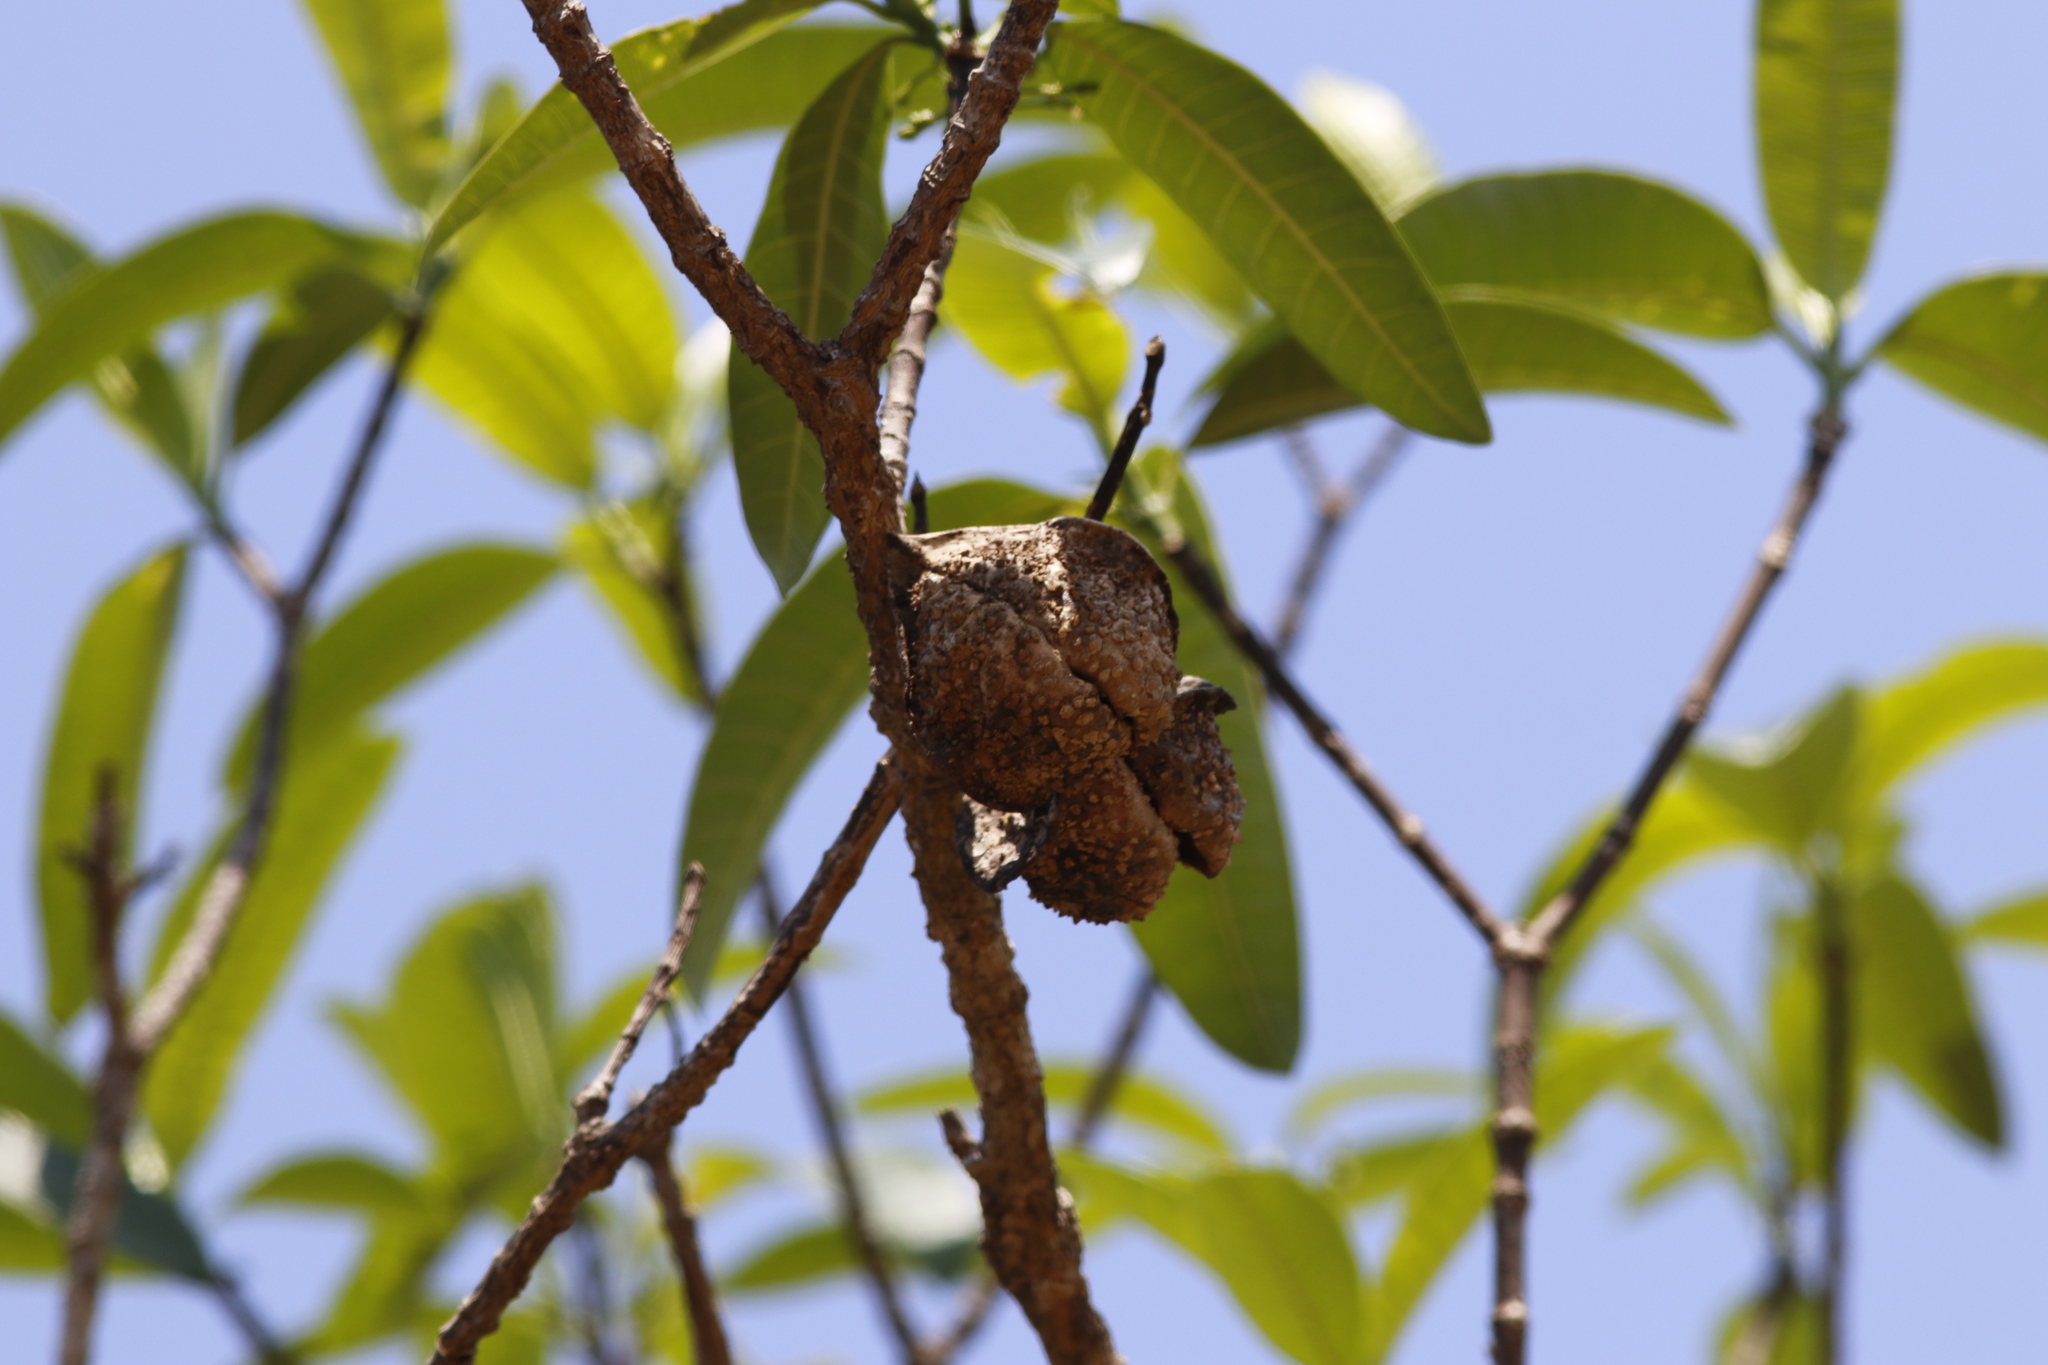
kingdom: Plantae
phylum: Tracheophyta
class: Magnoliopsida
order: Gentianales
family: Apocynaceae
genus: Tabernaemontana
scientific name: Tabernaemontana elegans
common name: Toadtree
